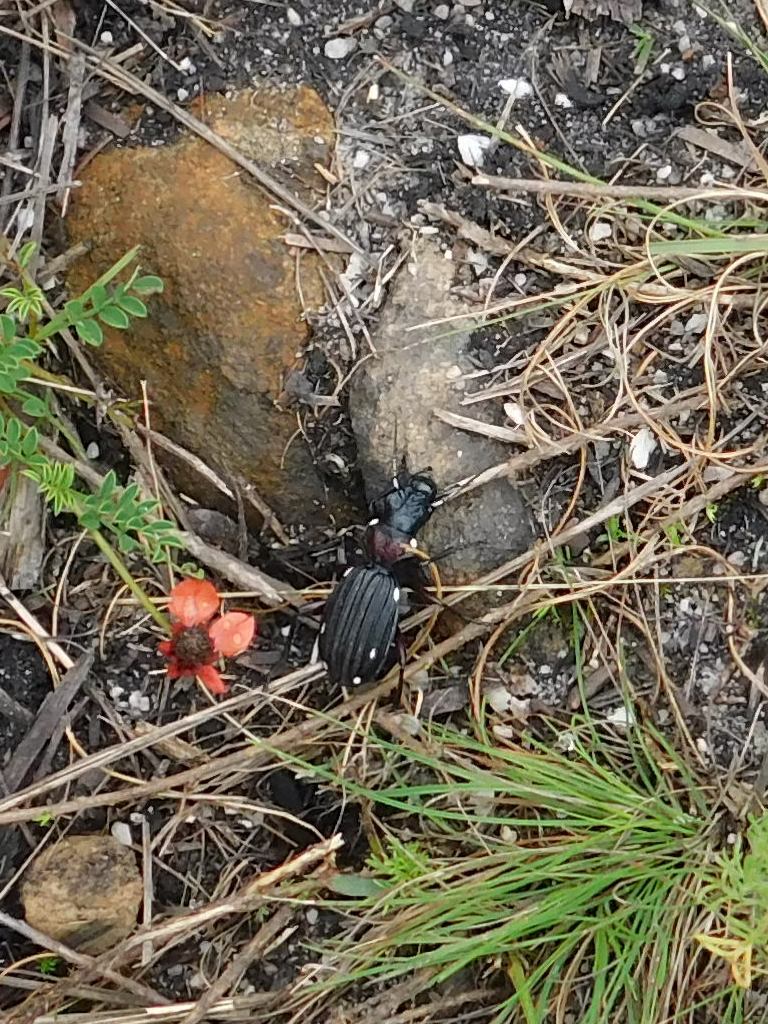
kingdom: Animalia
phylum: Arthropoda
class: Insecta
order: Coleoptera
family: Carabidae
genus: Anthia
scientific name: Anthia decemguttata
